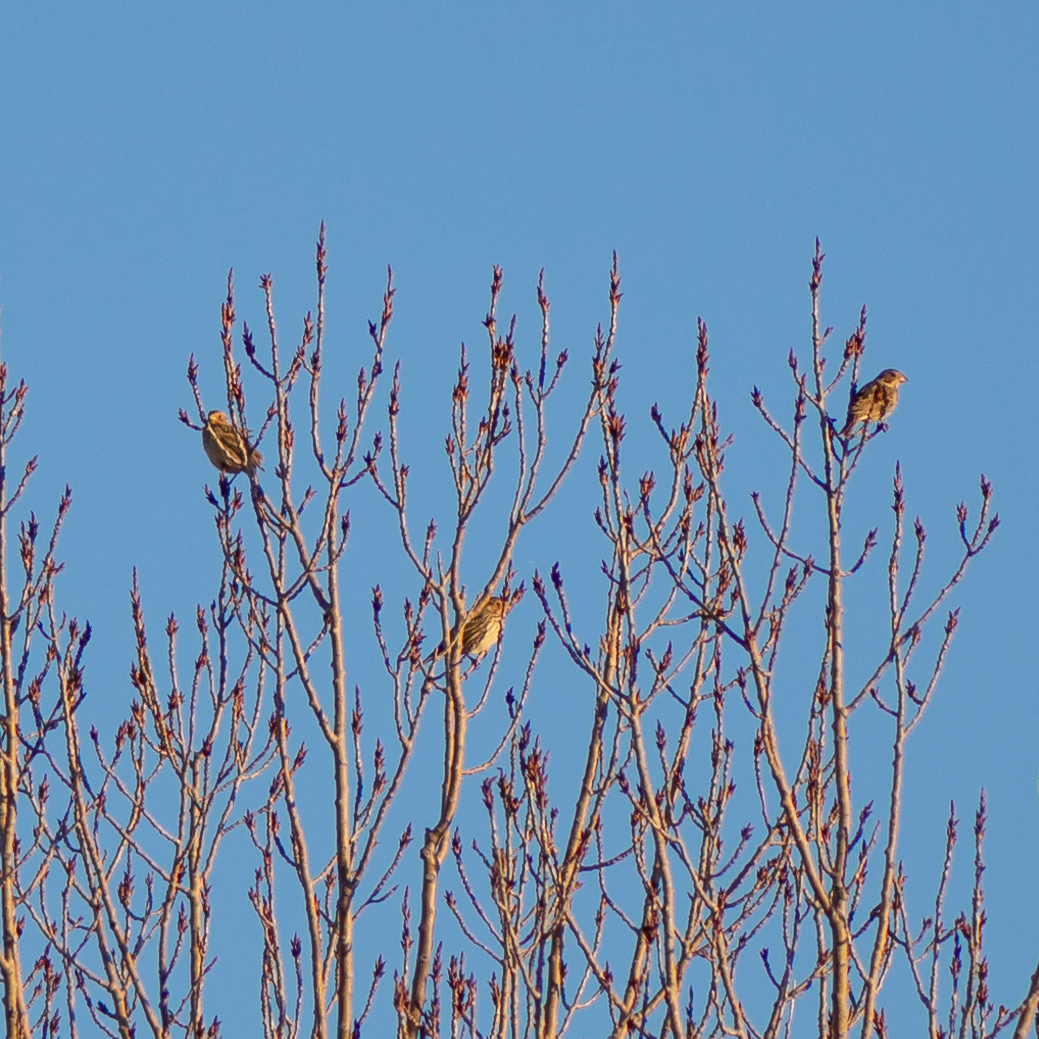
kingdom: Animalia
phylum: Chordata
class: Aves
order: Passeriformes
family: Emberizidae
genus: Emberiza
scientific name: Emberiza calandra
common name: Corn bunting
